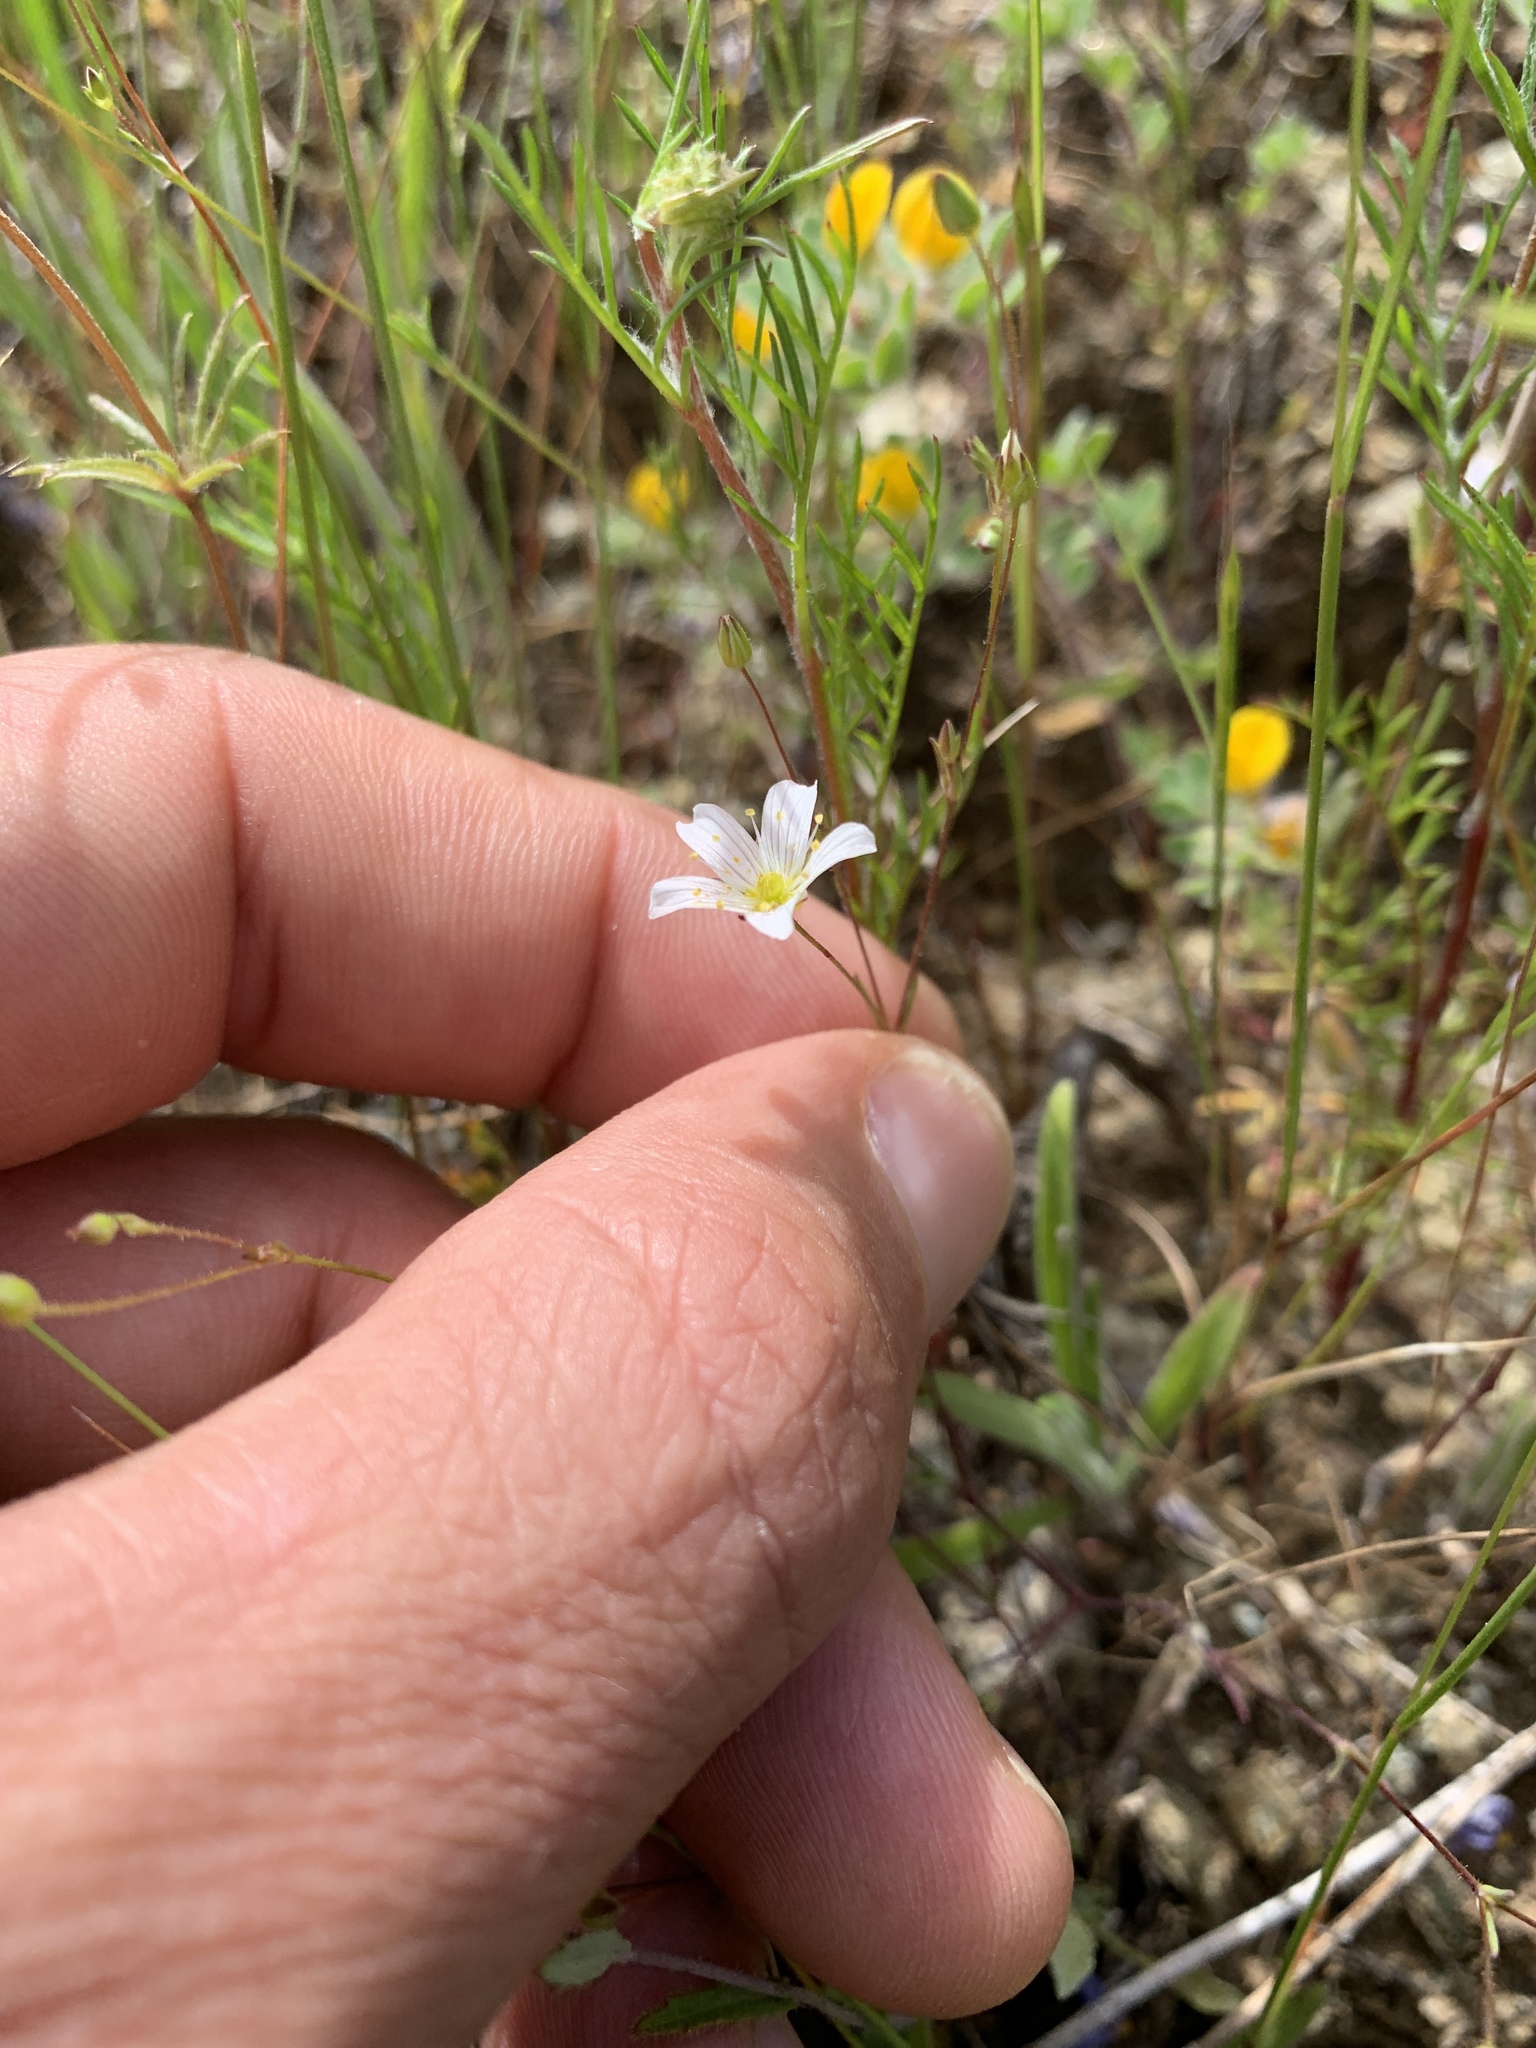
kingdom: Plantae
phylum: Tracheophyta
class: Magnoliopsida
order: Caryophyllales
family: Caryophyllaceae
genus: Sabulina
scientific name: Sabulina douglasii
